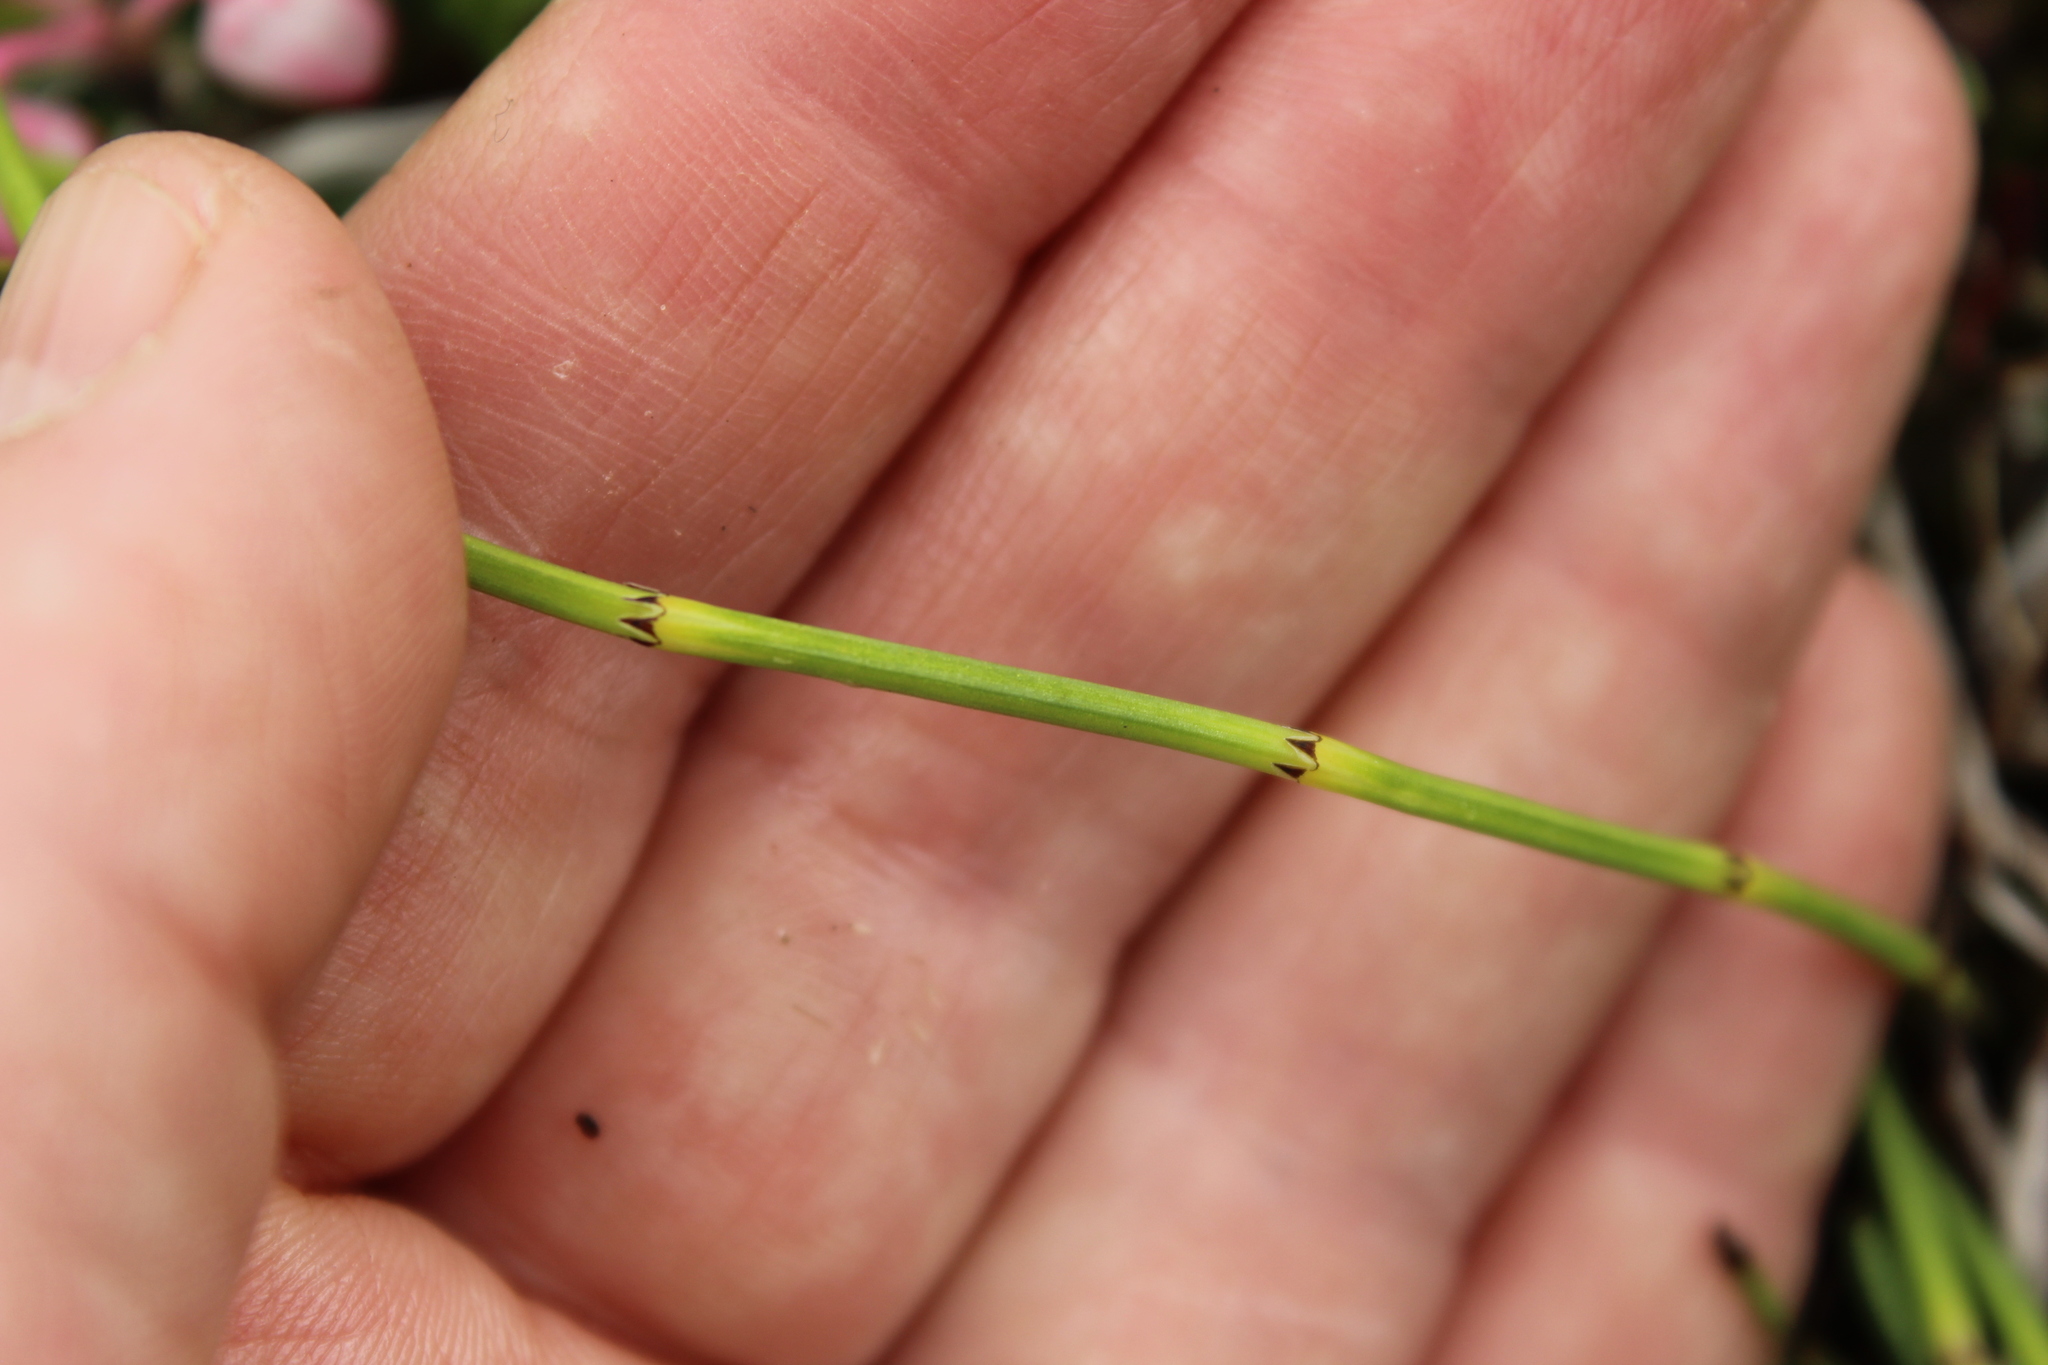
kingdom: Plantae
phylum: Tracheophyta
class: Polypodiopsida
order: Equisetales
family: Equisetaceae
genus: Equisetum
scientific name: Equisetum palustre
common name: Marsh horsetail
